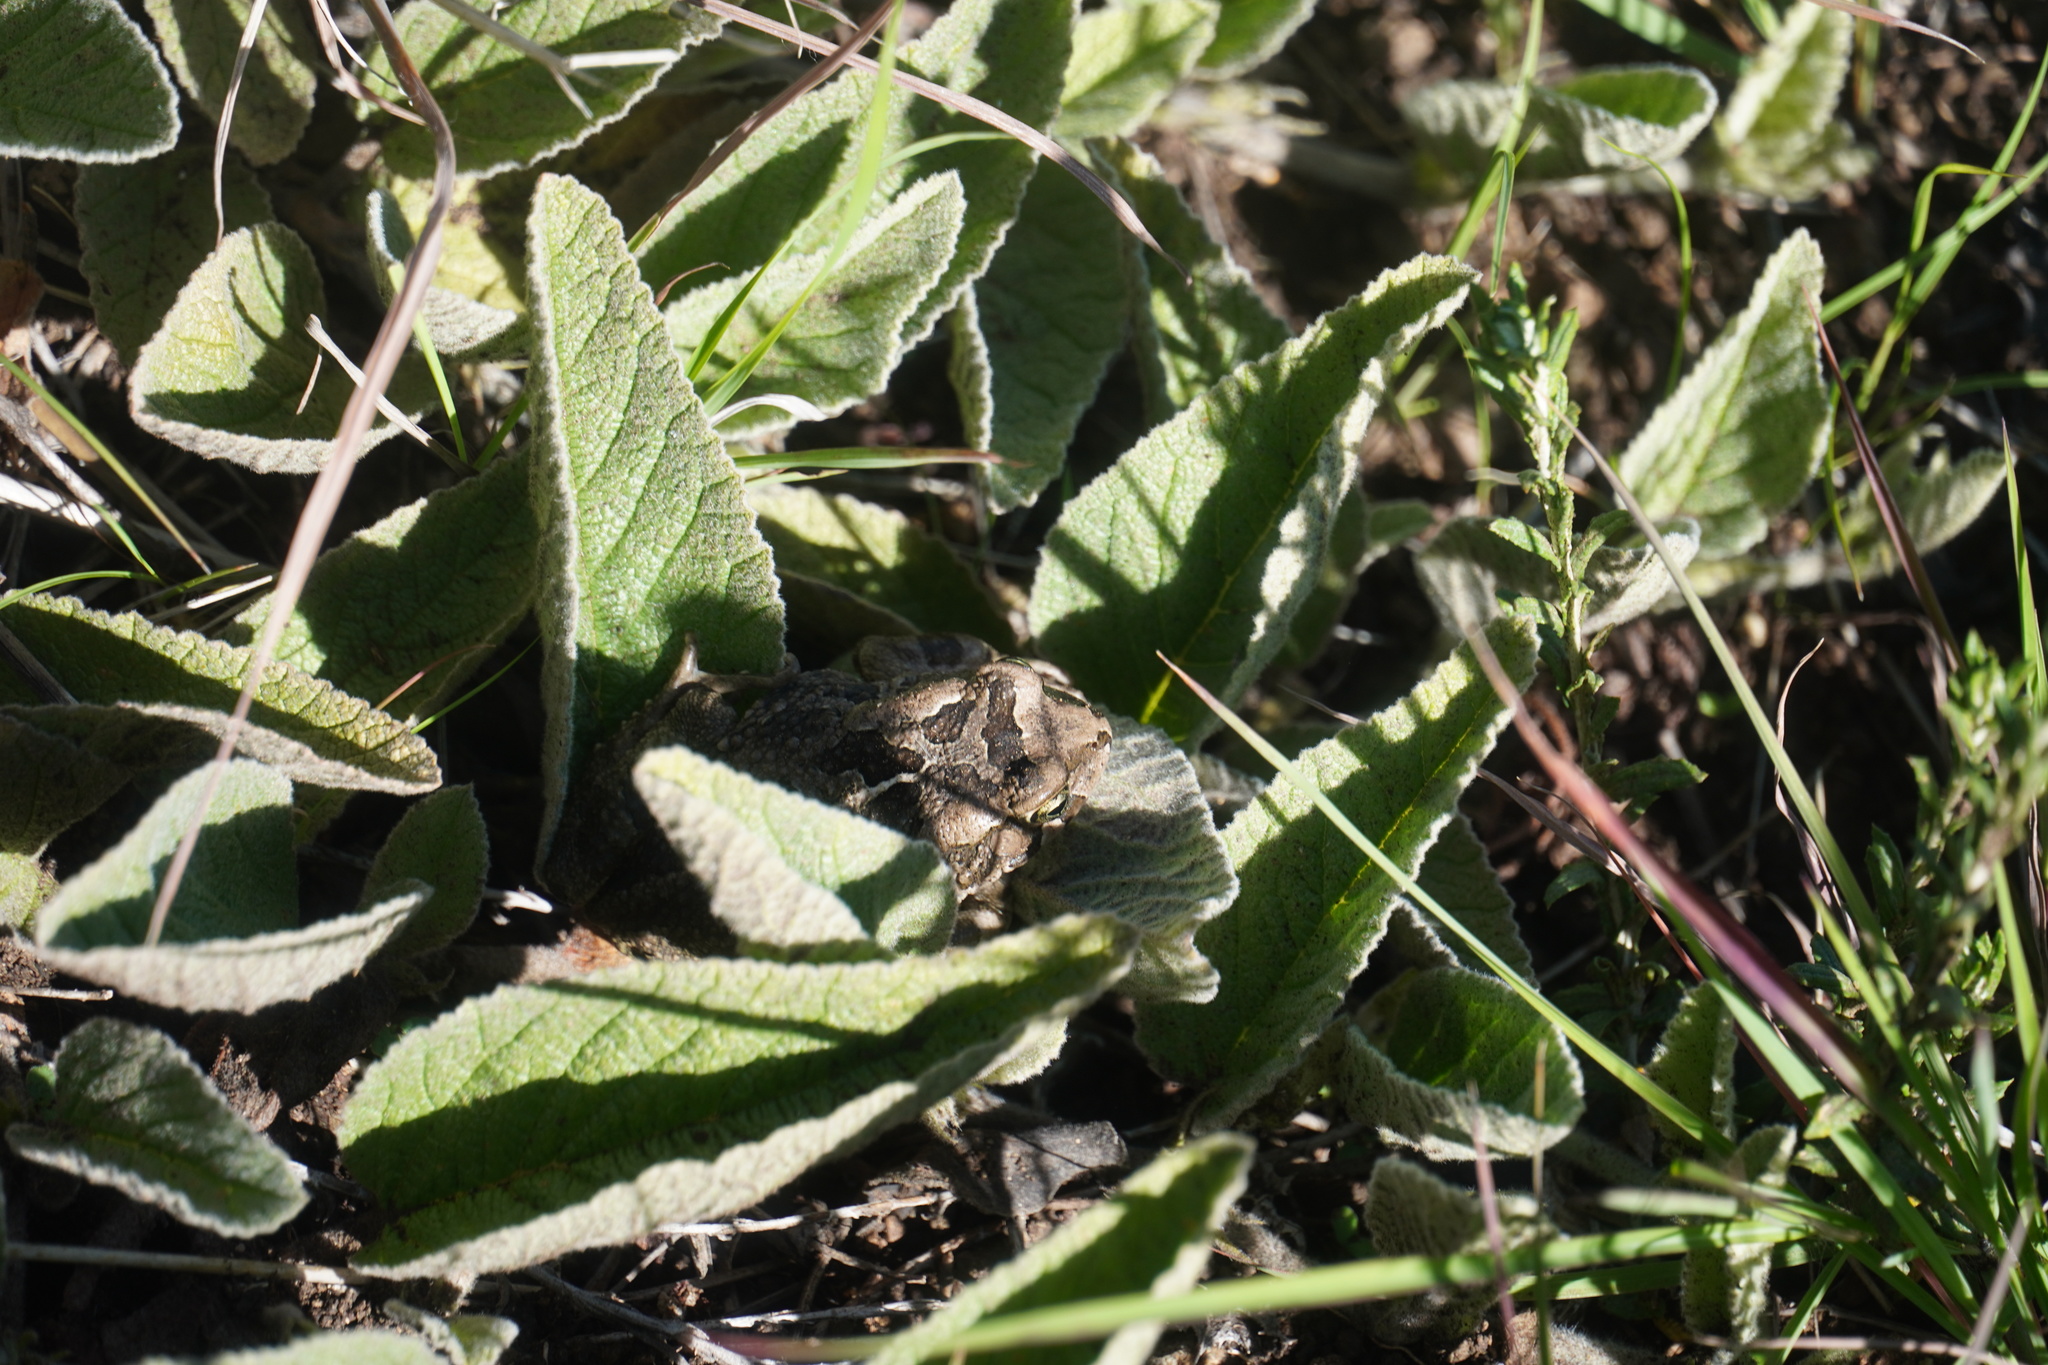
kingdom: Animalia
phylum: Chordata
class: Amphibia
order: Anura
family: Bufonidae
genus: Sclerophrys
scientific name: Sclerophrys capensis
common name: Ranger’s toad
